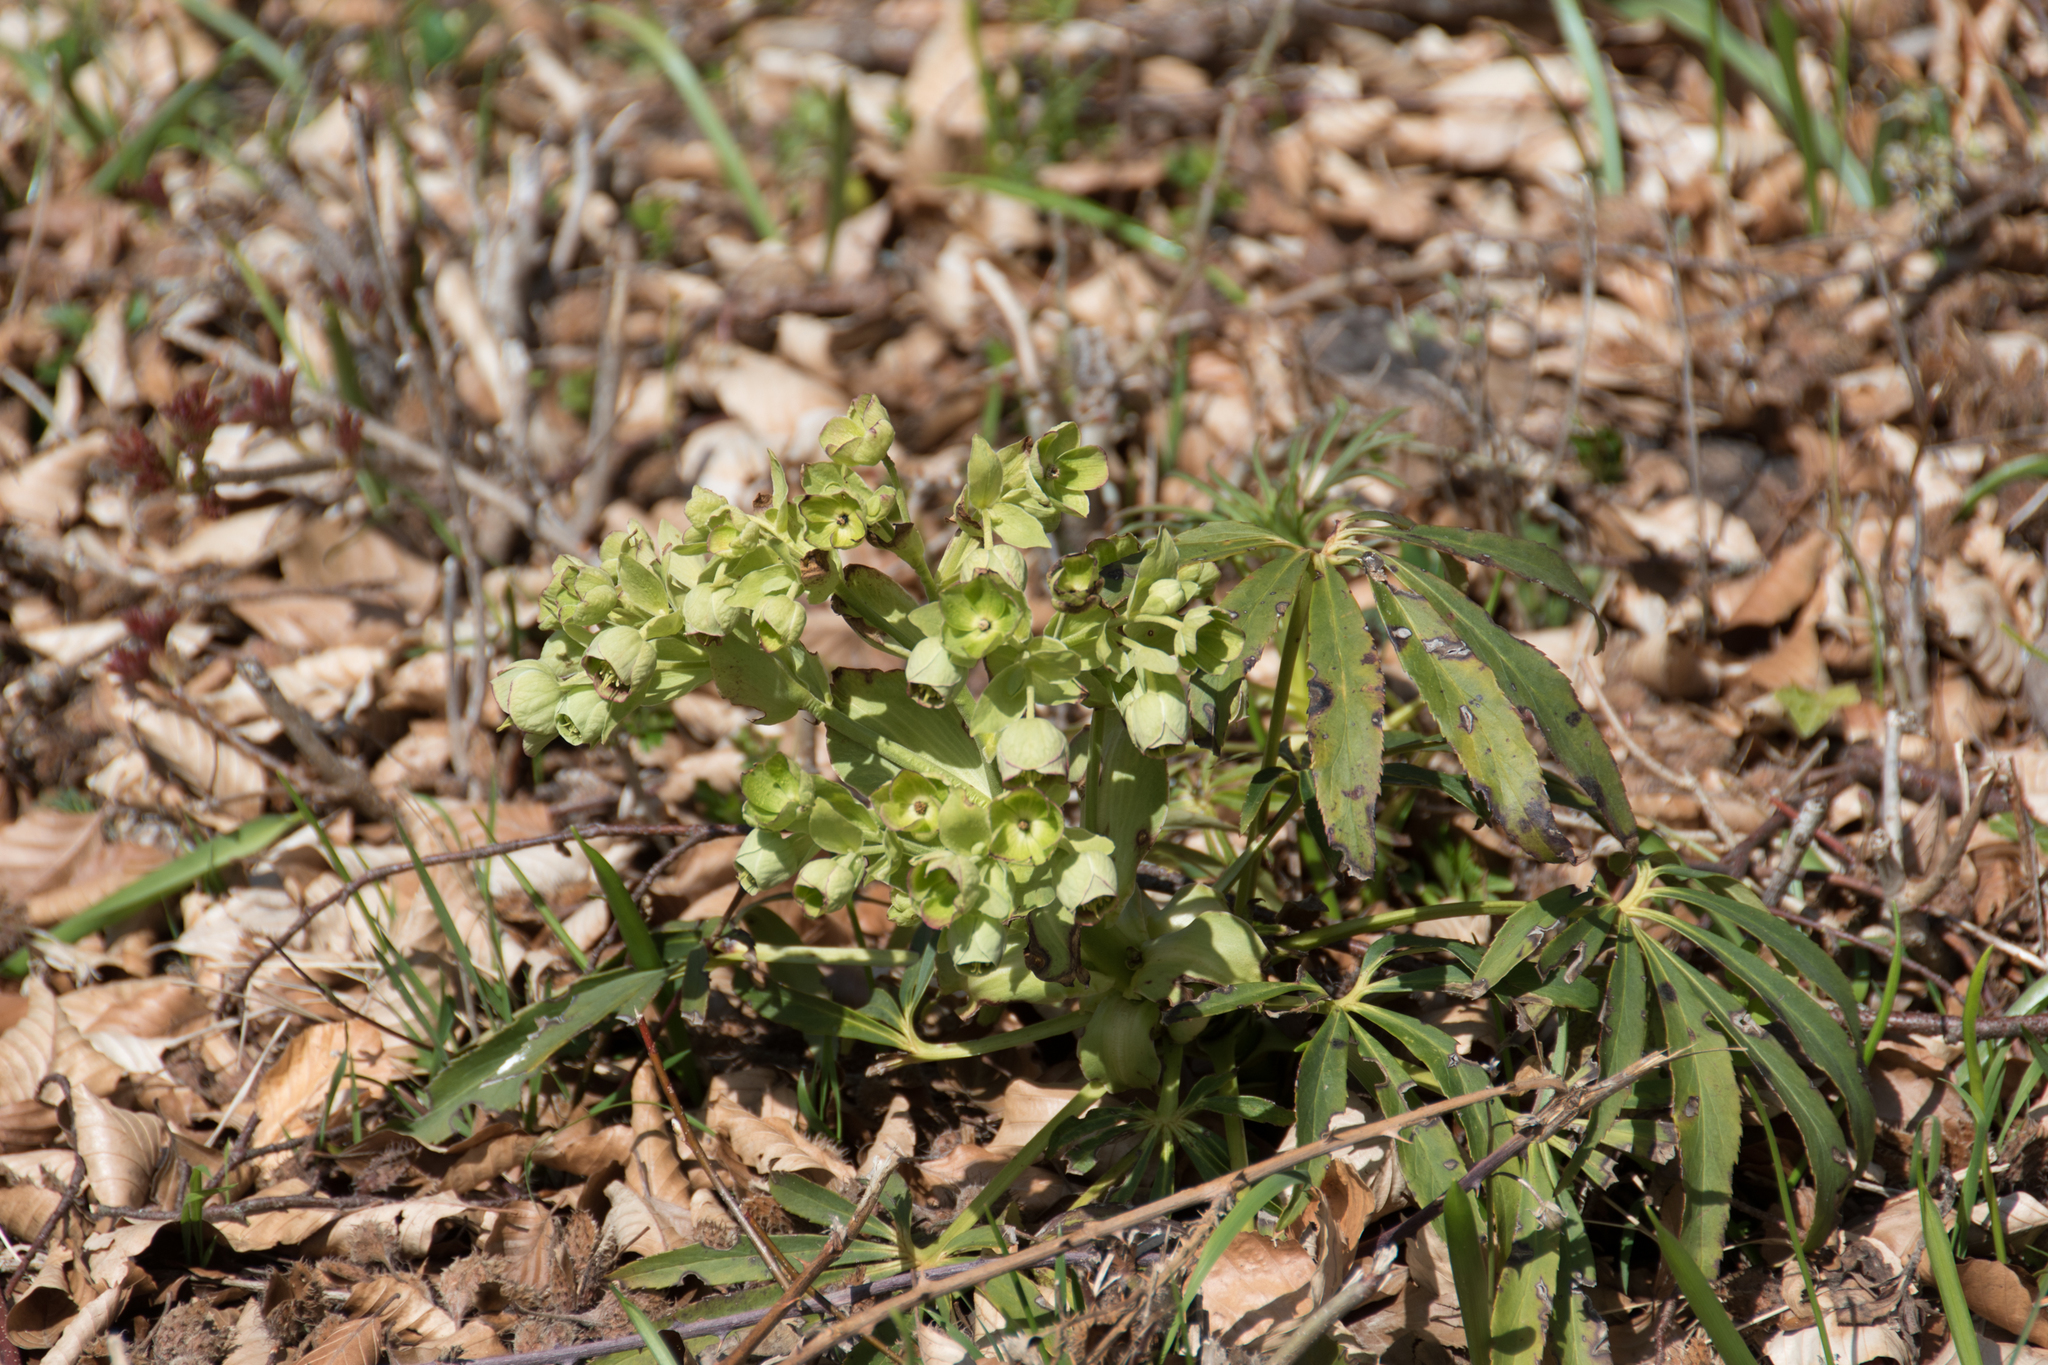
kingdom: Plantae
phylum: Tracheophyta
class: Magnoliopsida
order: Ranunculales
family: Ranunculaceae
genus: Helleborus
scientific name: Helleborus foetidus
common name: Stinking hellebore
